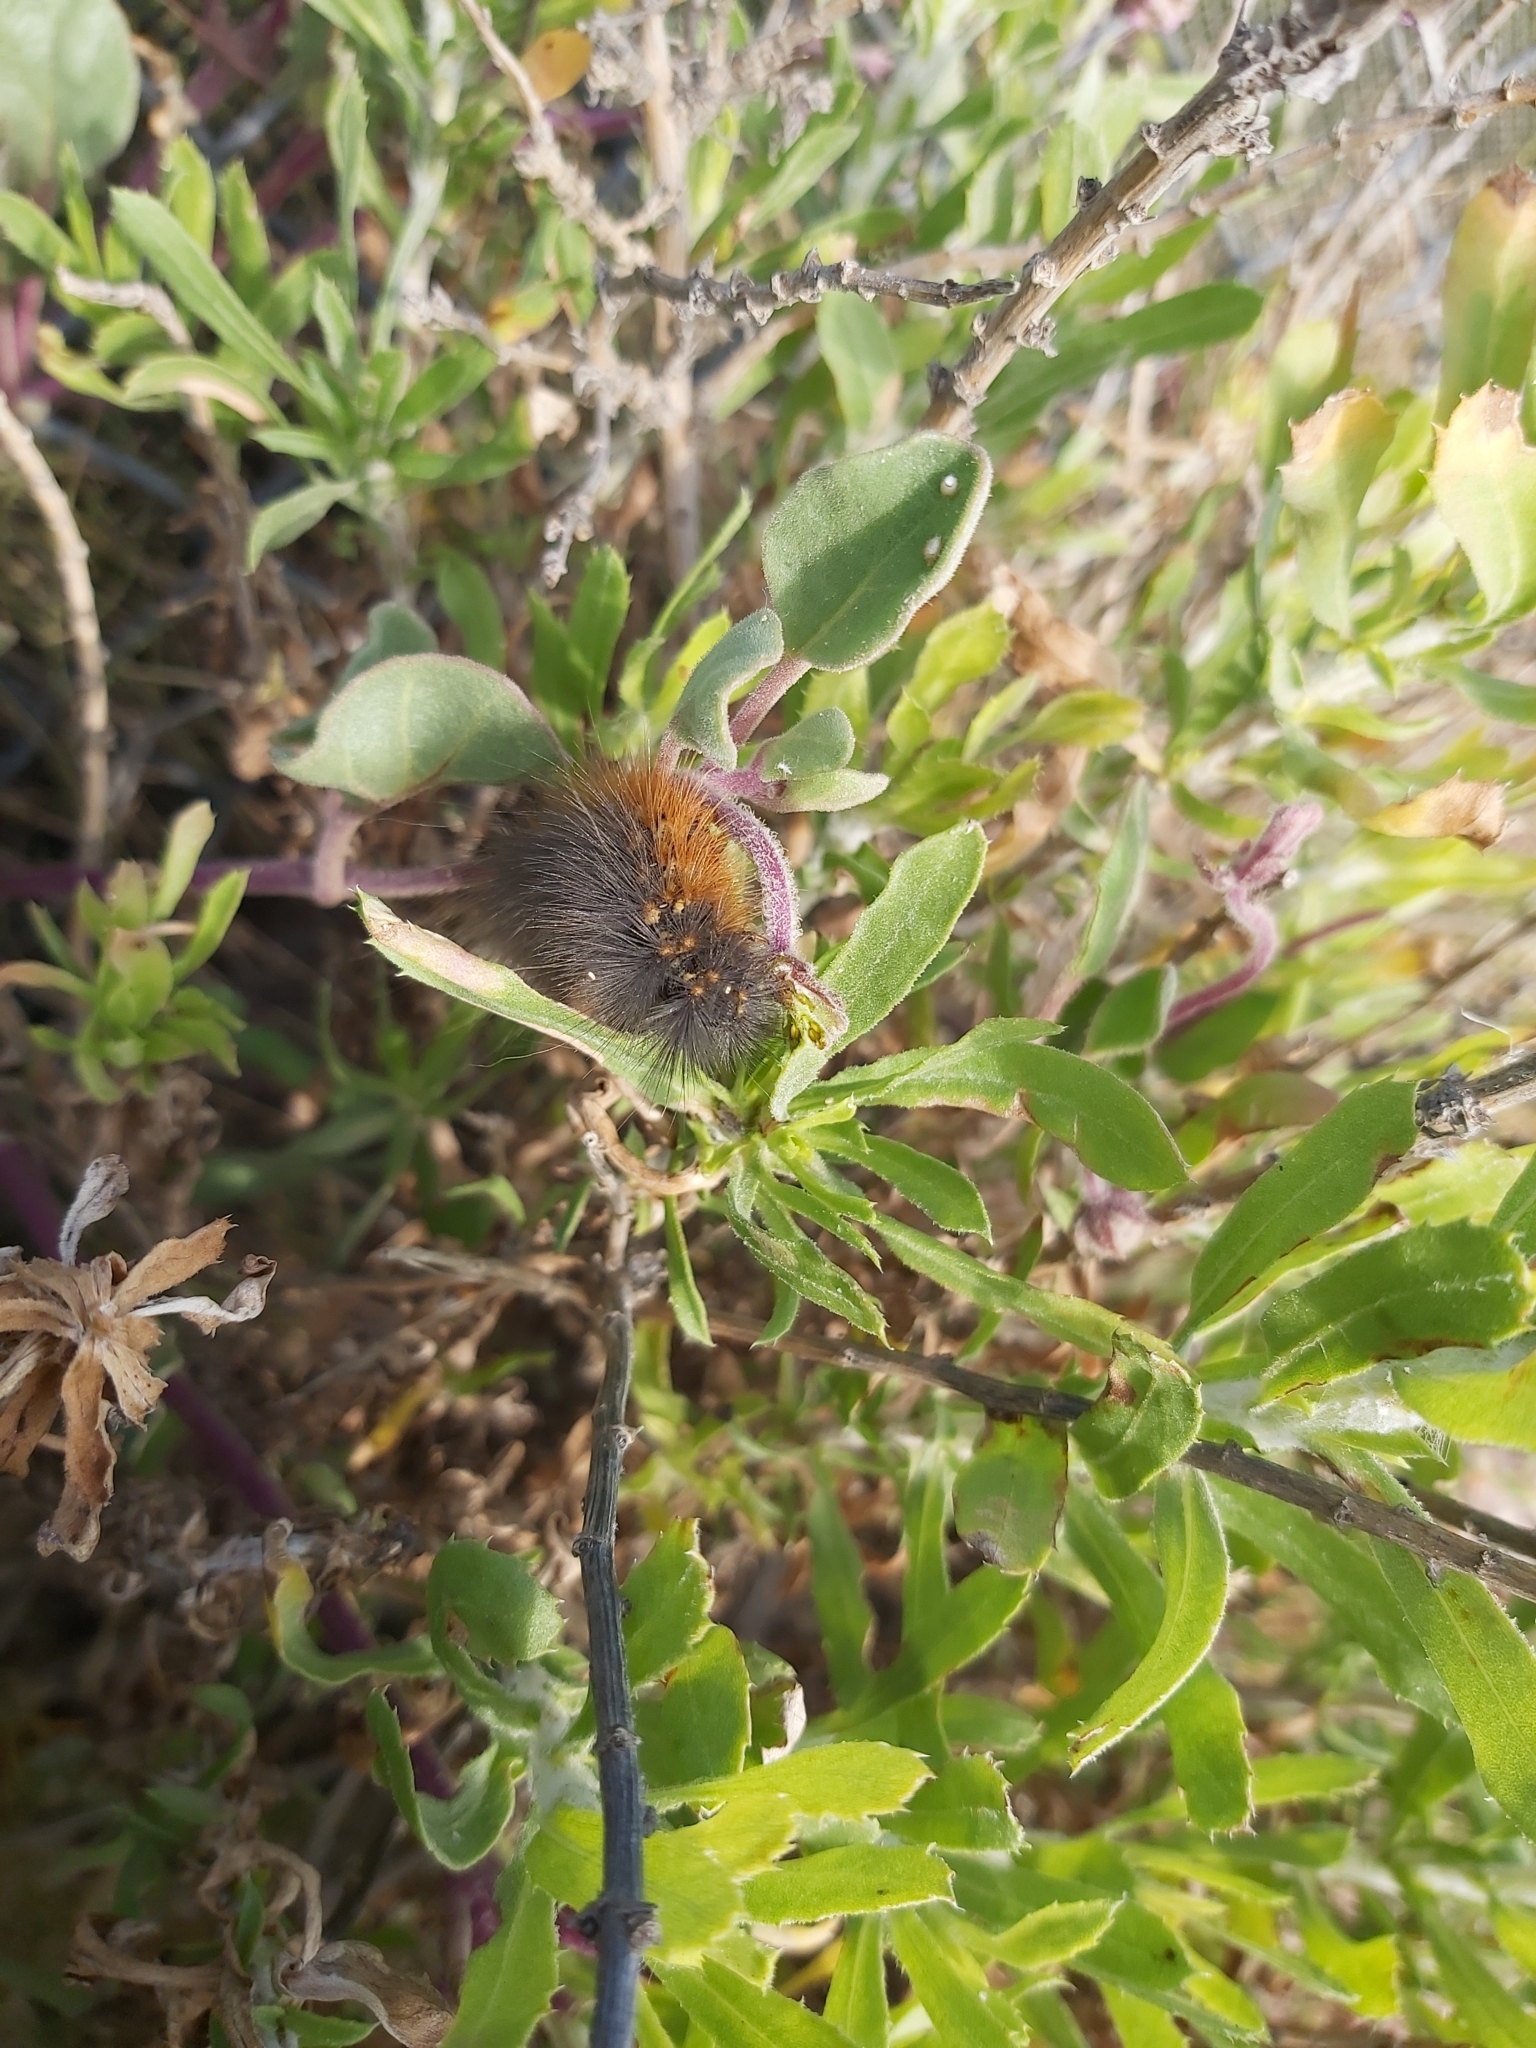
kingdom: Animalia
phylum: Arthropoda
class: Insecta
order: Lepidoptera
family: Erebidae
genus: Estigmene
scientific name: Estigmene acrea
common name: Salt marsh moth
